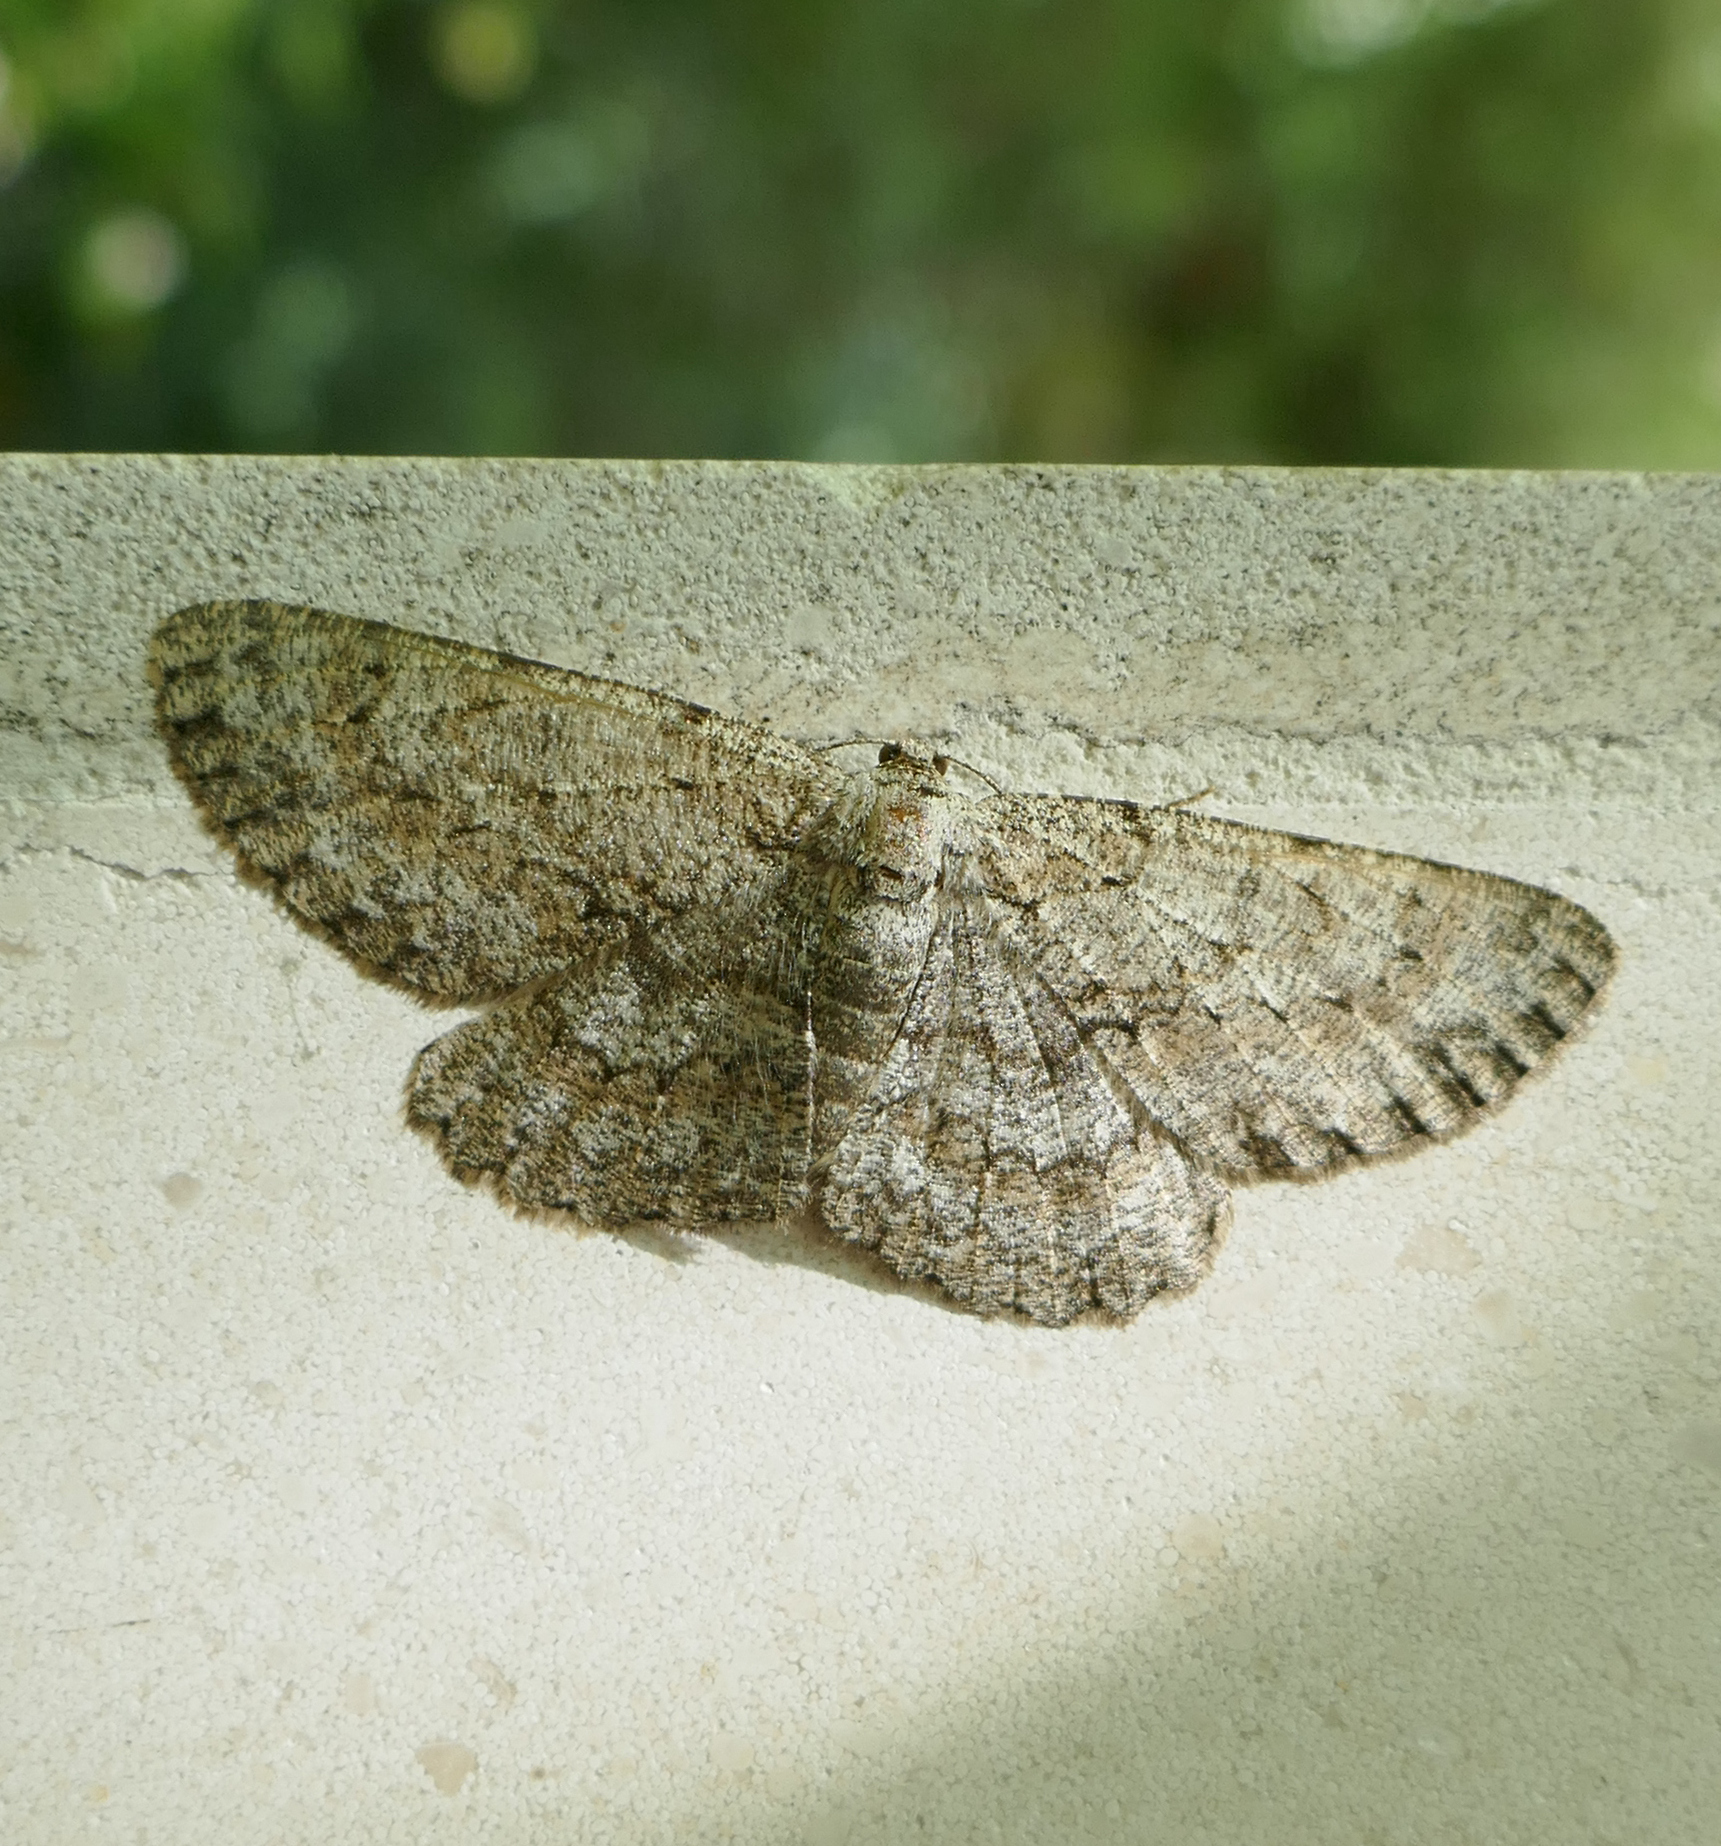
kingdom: Animalia
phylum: Arthropoda
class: Insecta
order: Lepidoptera
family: Geometridae
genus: Hypomecis
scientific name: Hypomecis punctinalis
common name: Pale oak beauty
